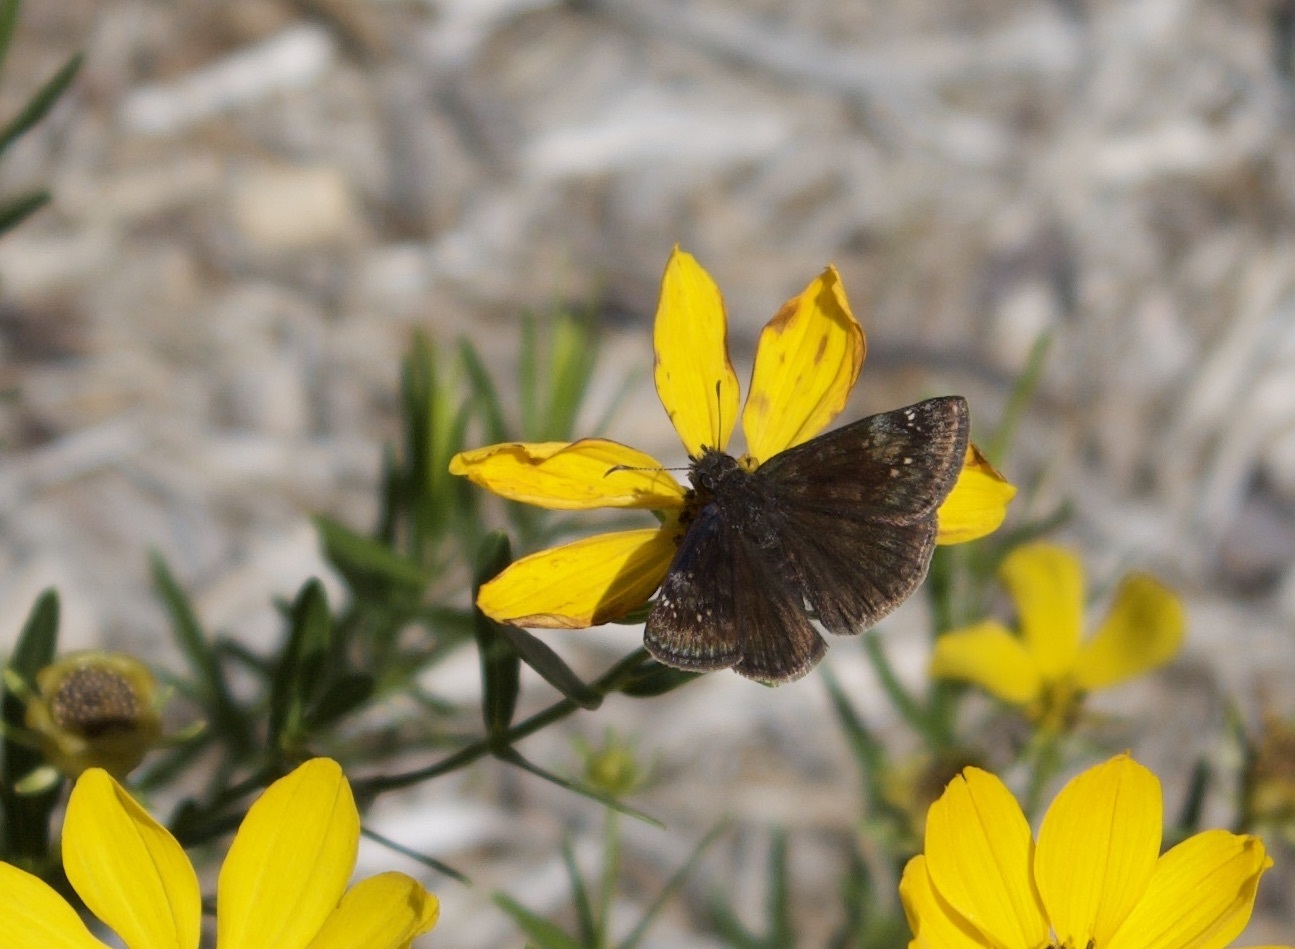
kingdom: Animalia
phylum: Arthropoda
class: Insecta
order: Lepidoptera
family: Hesperiidae
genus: Erynnis
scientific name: Erynnis baptisiae
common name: Wild indigo duskywing
